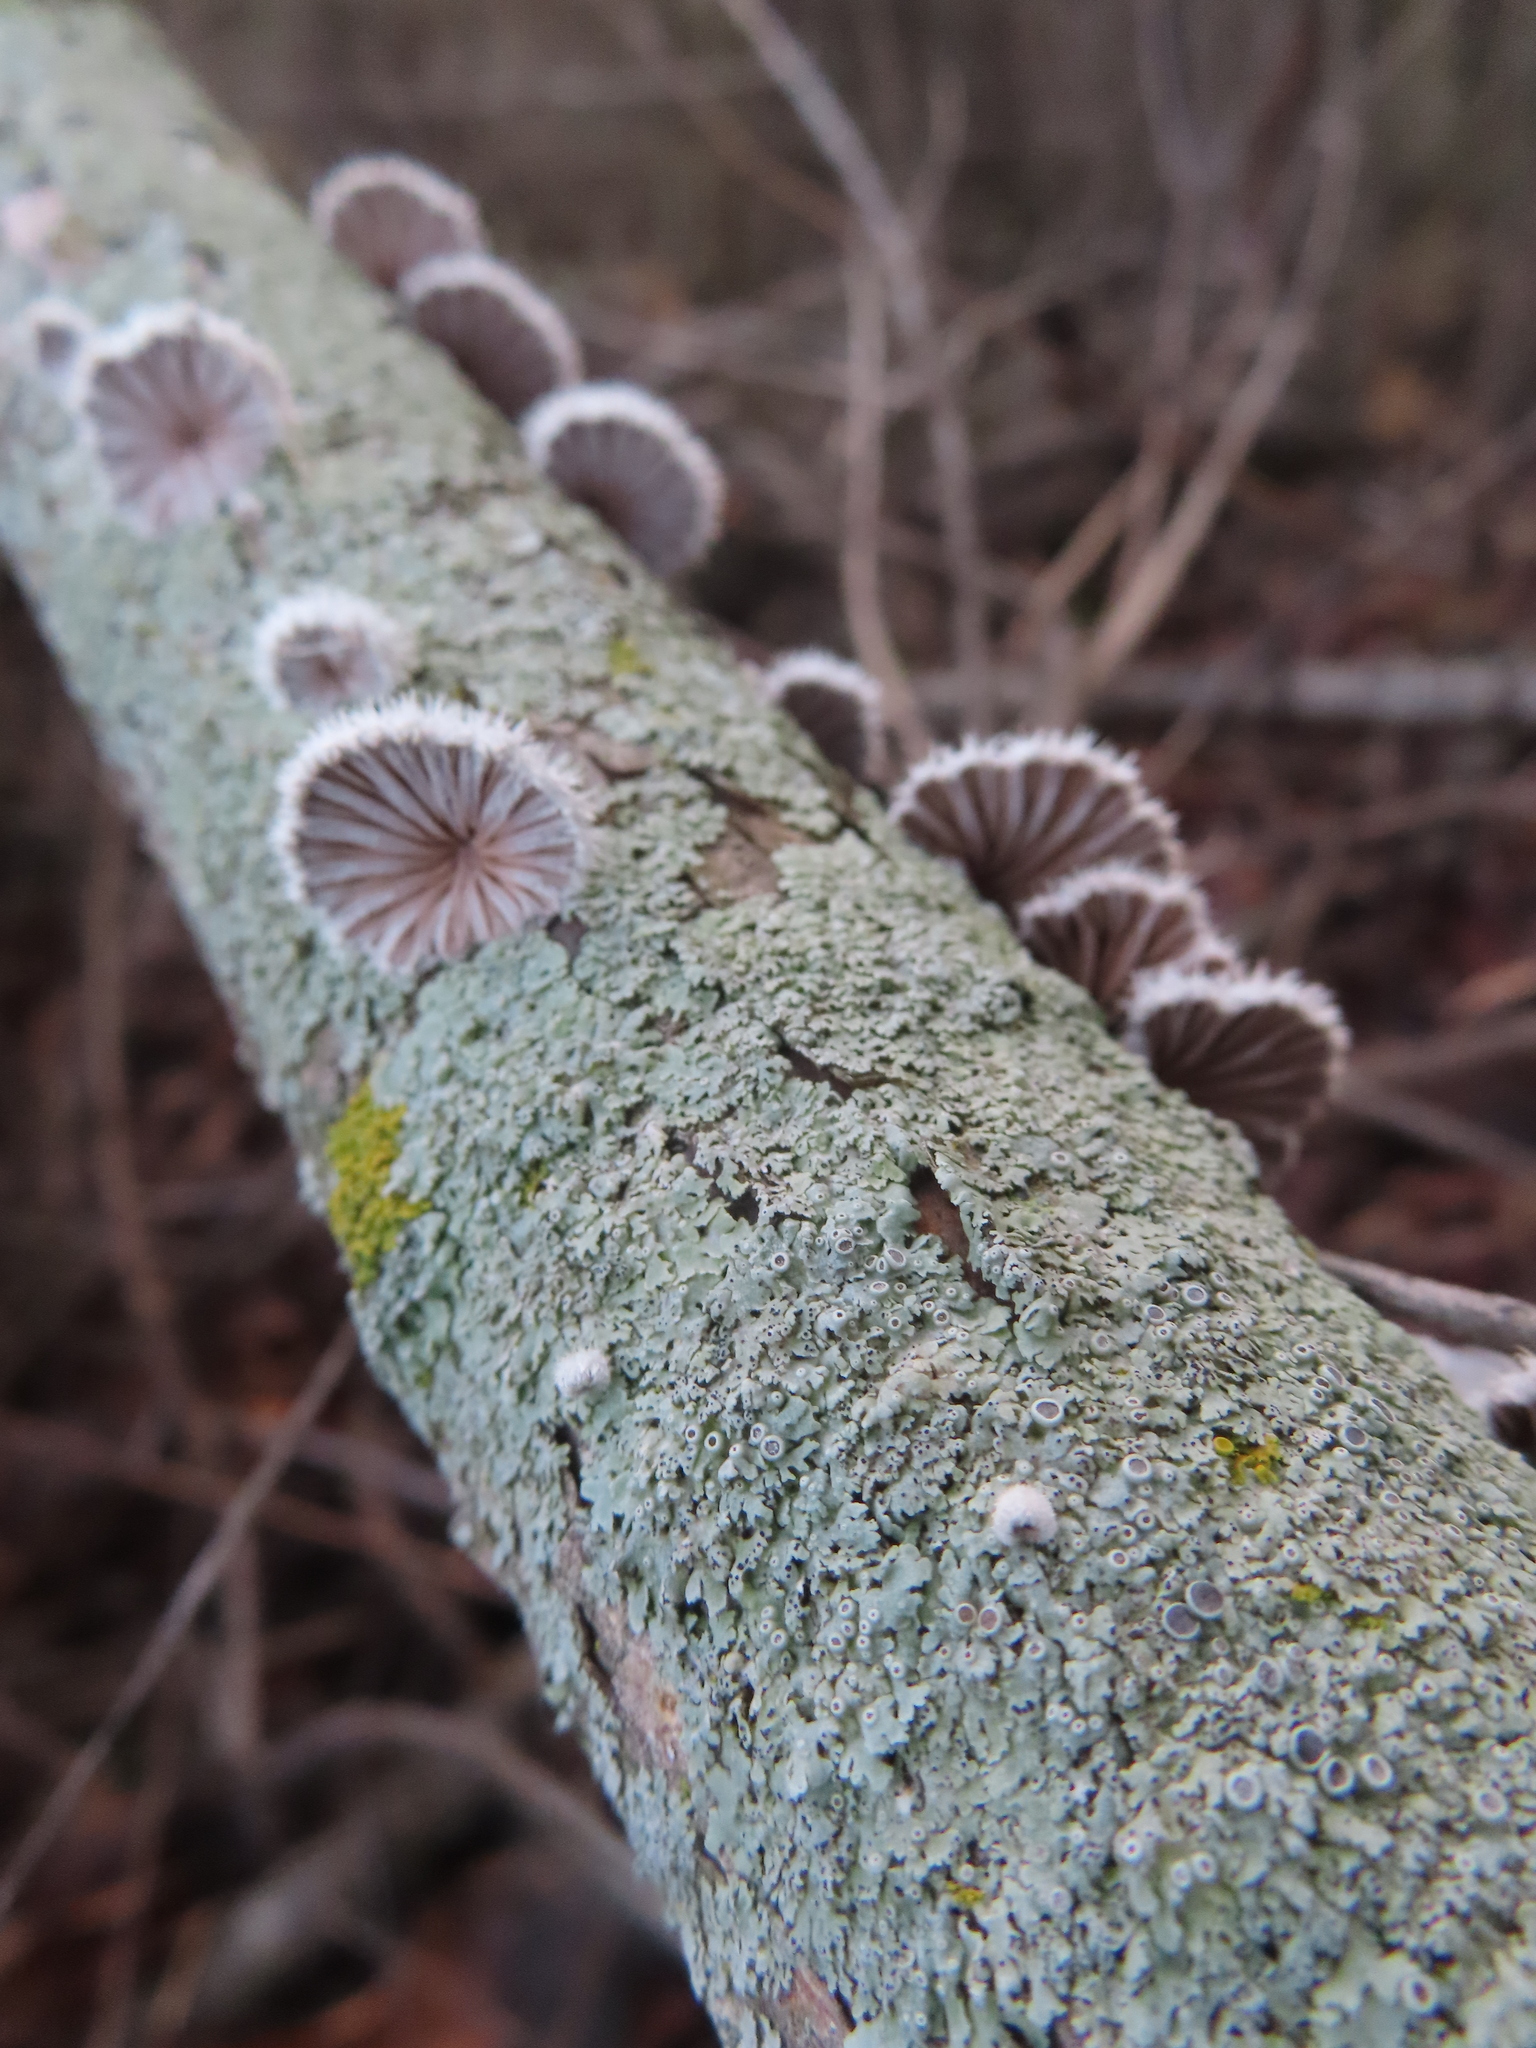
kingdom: Fungi
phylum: Basidiomycota
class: Agaricomycetes
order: Agaricales
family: Schizophyllaceae
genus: Schizophyllum
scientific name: Schizophyllum commune
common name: Common porecrust
